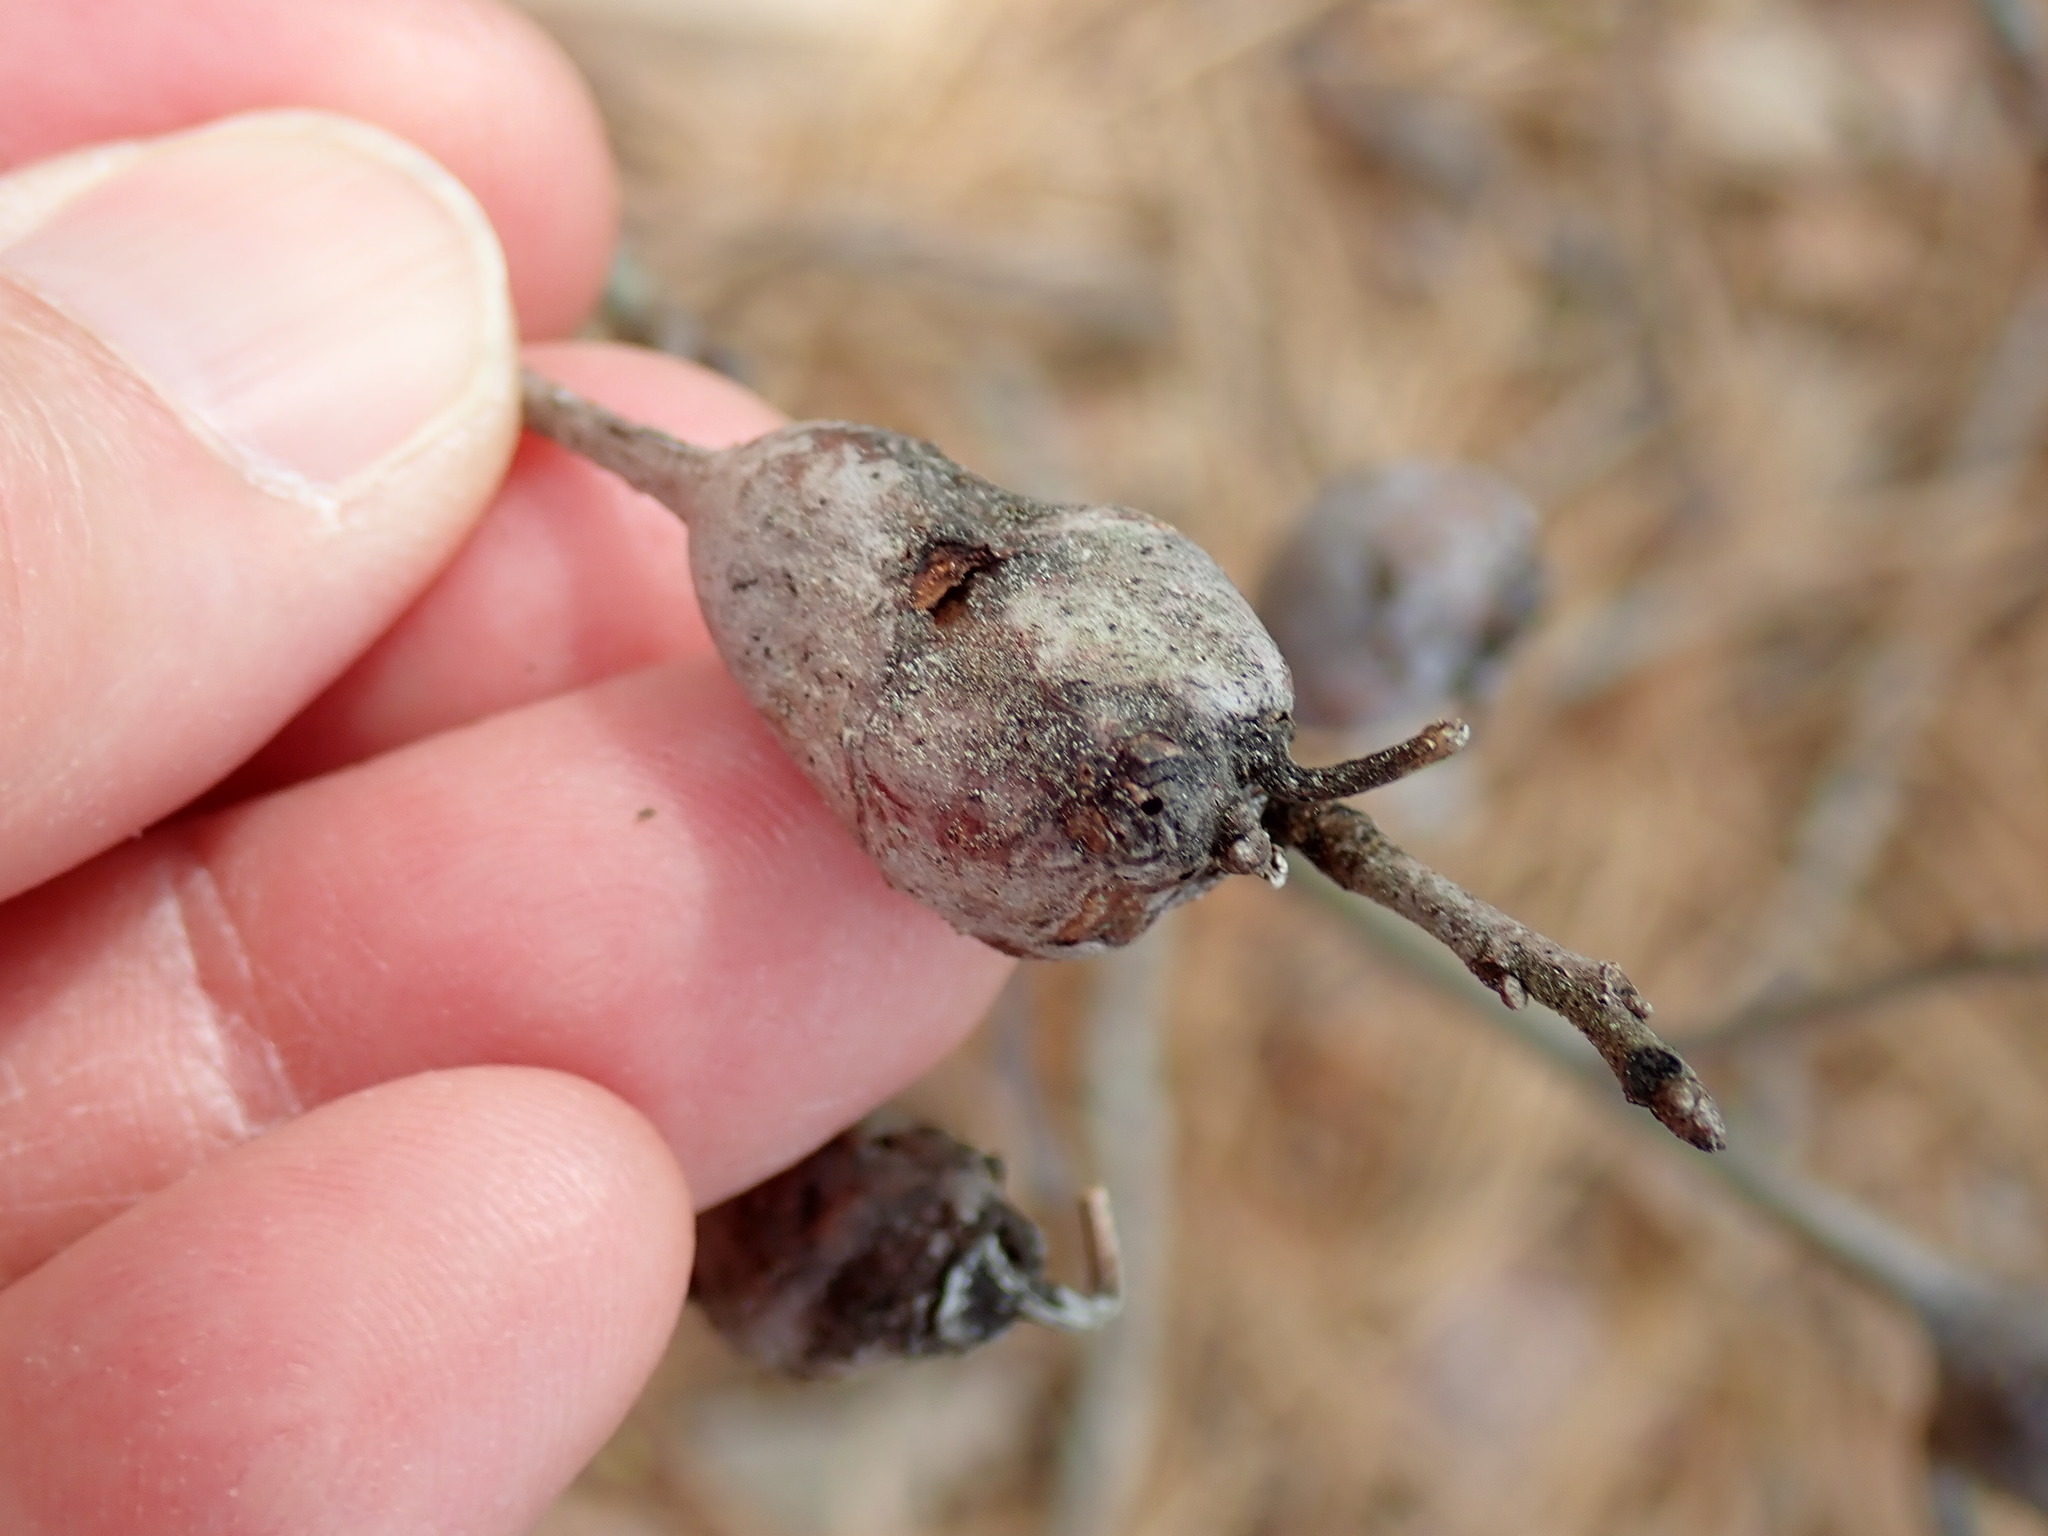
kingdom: Animalia
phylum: Arthropoda
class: Insecta
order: Hymenoptera
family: Cynipidae
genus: Zapatella
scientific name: Zapatella quercusphellos
